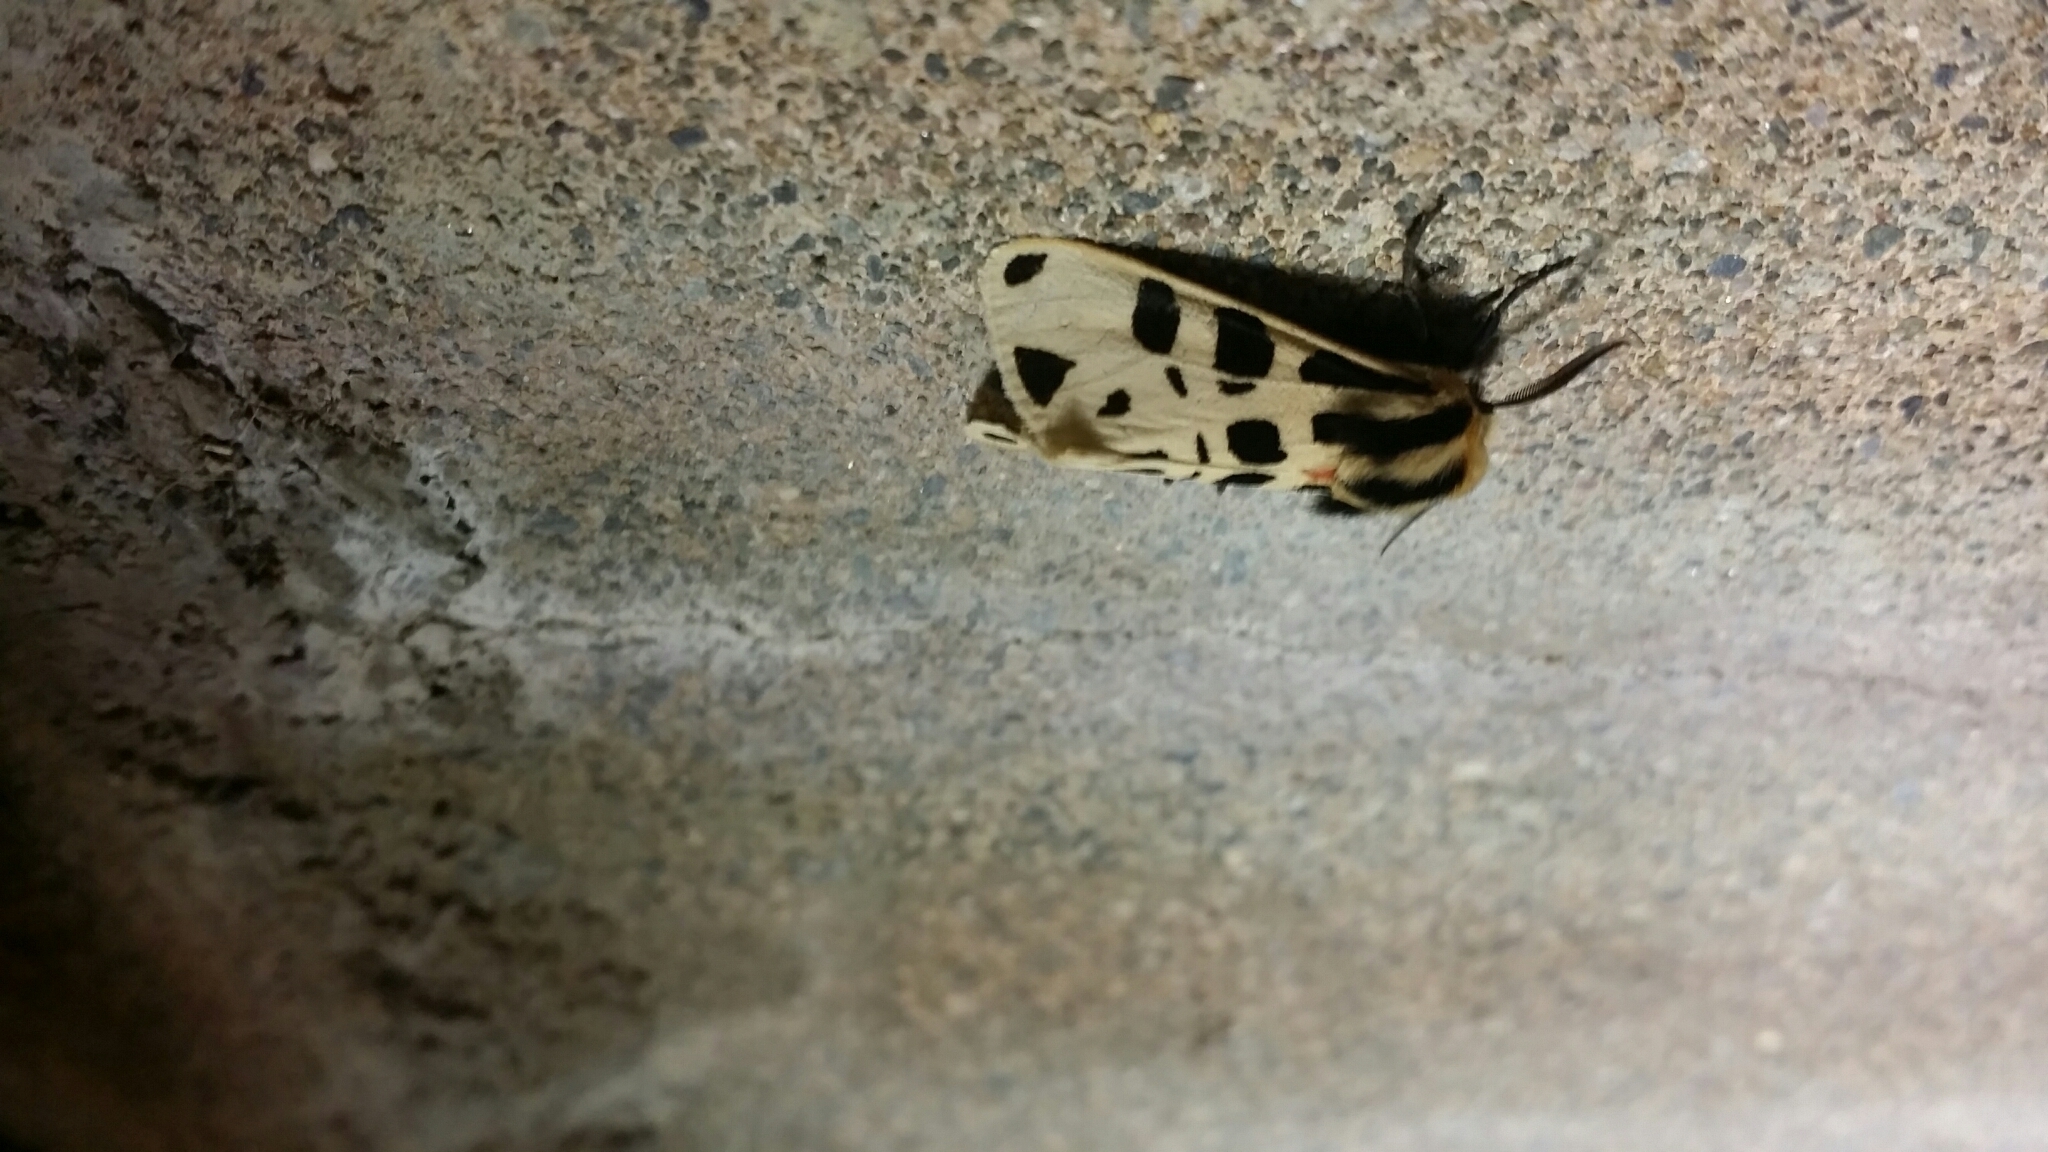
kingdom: Animalia
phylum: Arthropoda
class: Insecta
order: Lepidoptera
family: Erebidae
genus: Apantesis
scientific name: Apantesis
